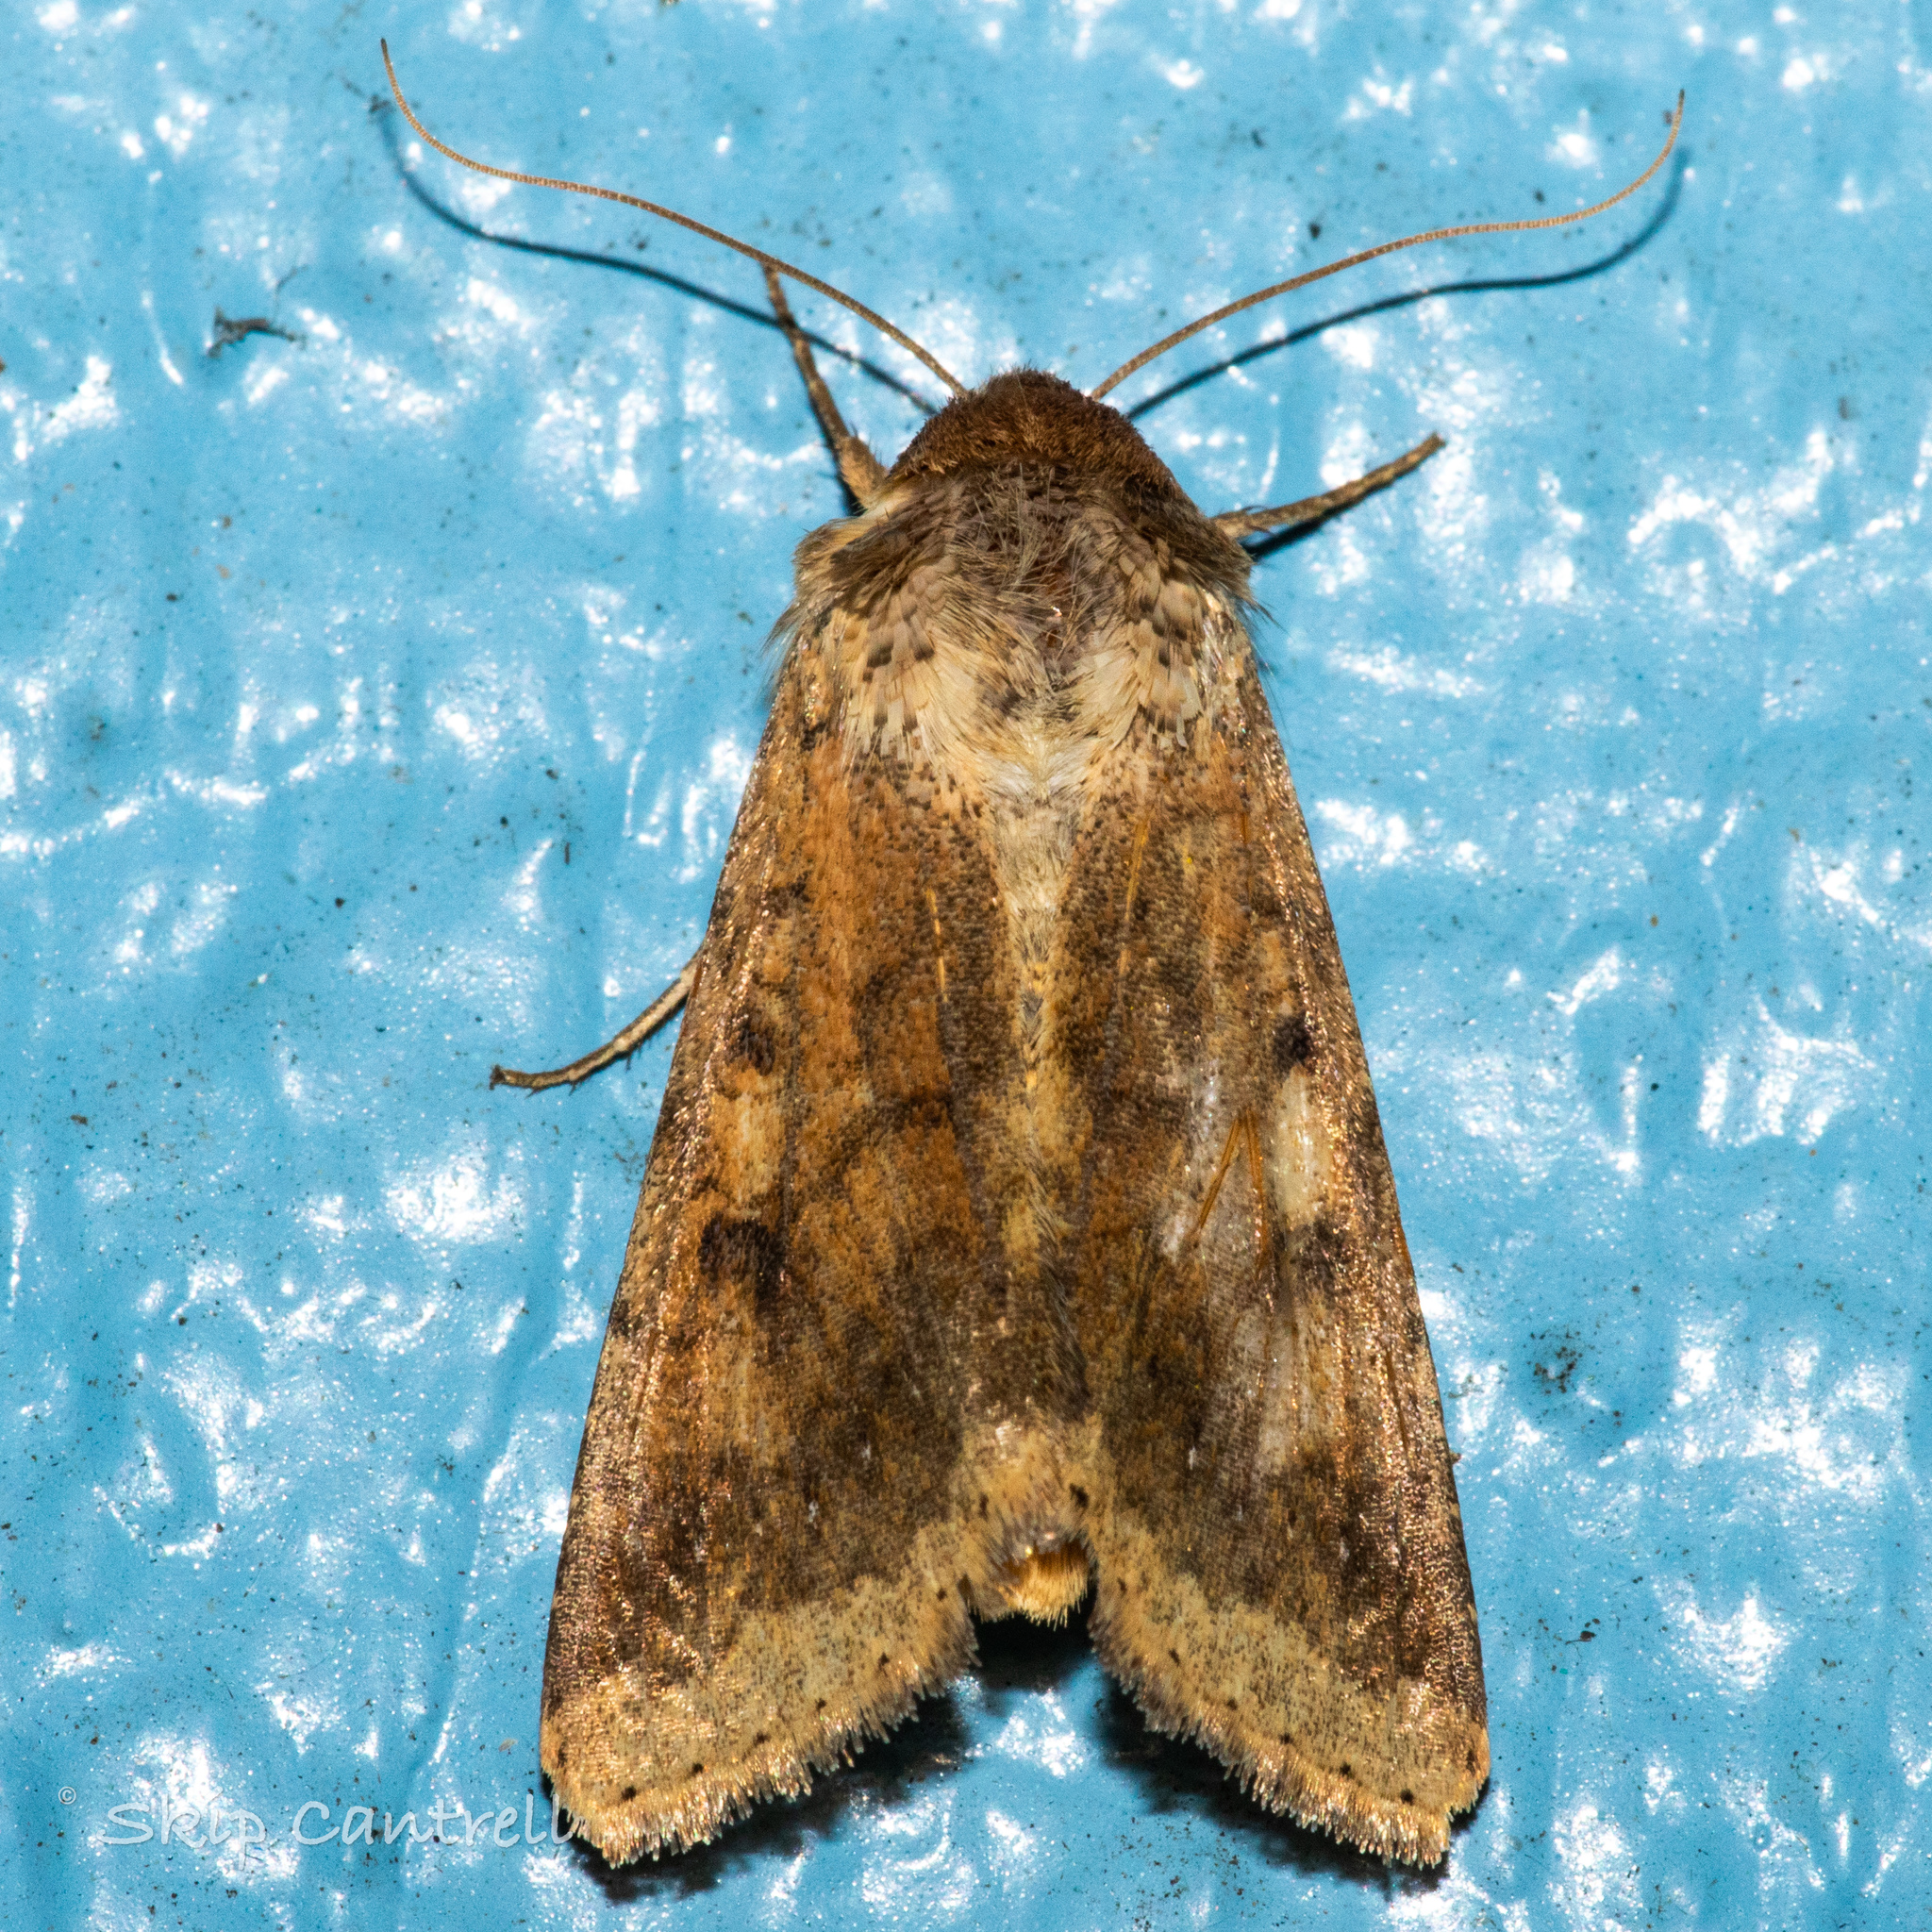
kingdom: Animalia
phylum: Arthropoda
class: Insecta
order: Lepidoptera
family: Noctuidae
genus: Helicoverpa
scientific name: Helicoverpa zea
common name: Bollworm
